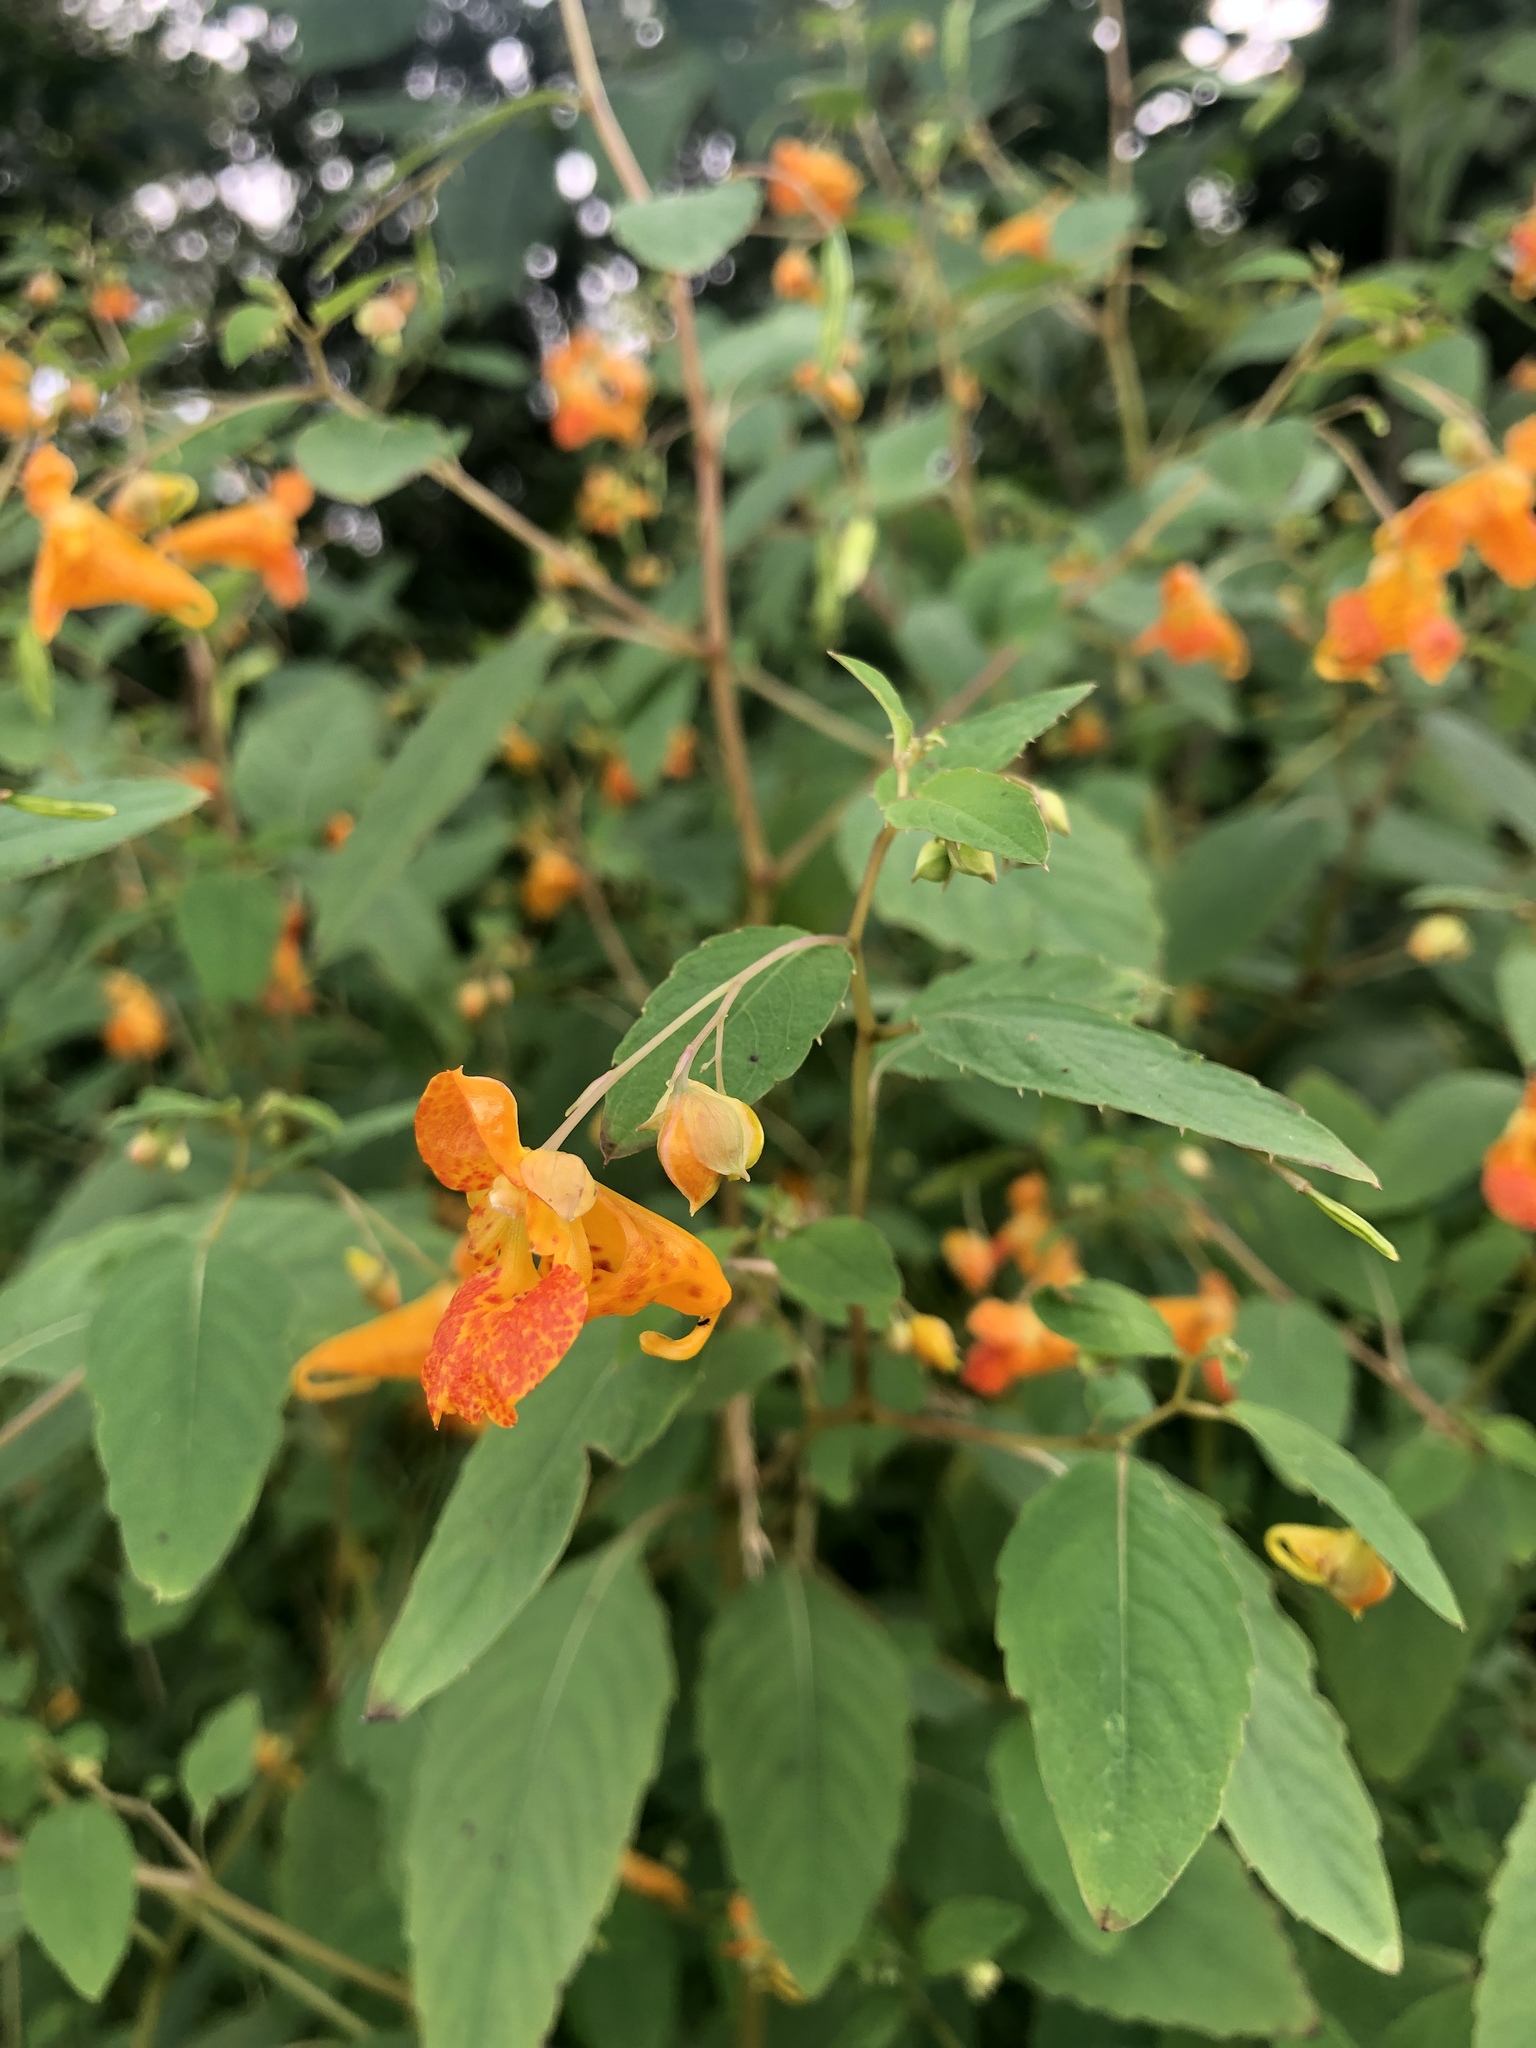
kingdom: Plantae
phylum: Tracheophyta
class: Magnoliopsida
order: Ericales
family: Balsaminaceae
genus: Impatiens
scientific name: Impatiens capensis
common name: Orange balsam
